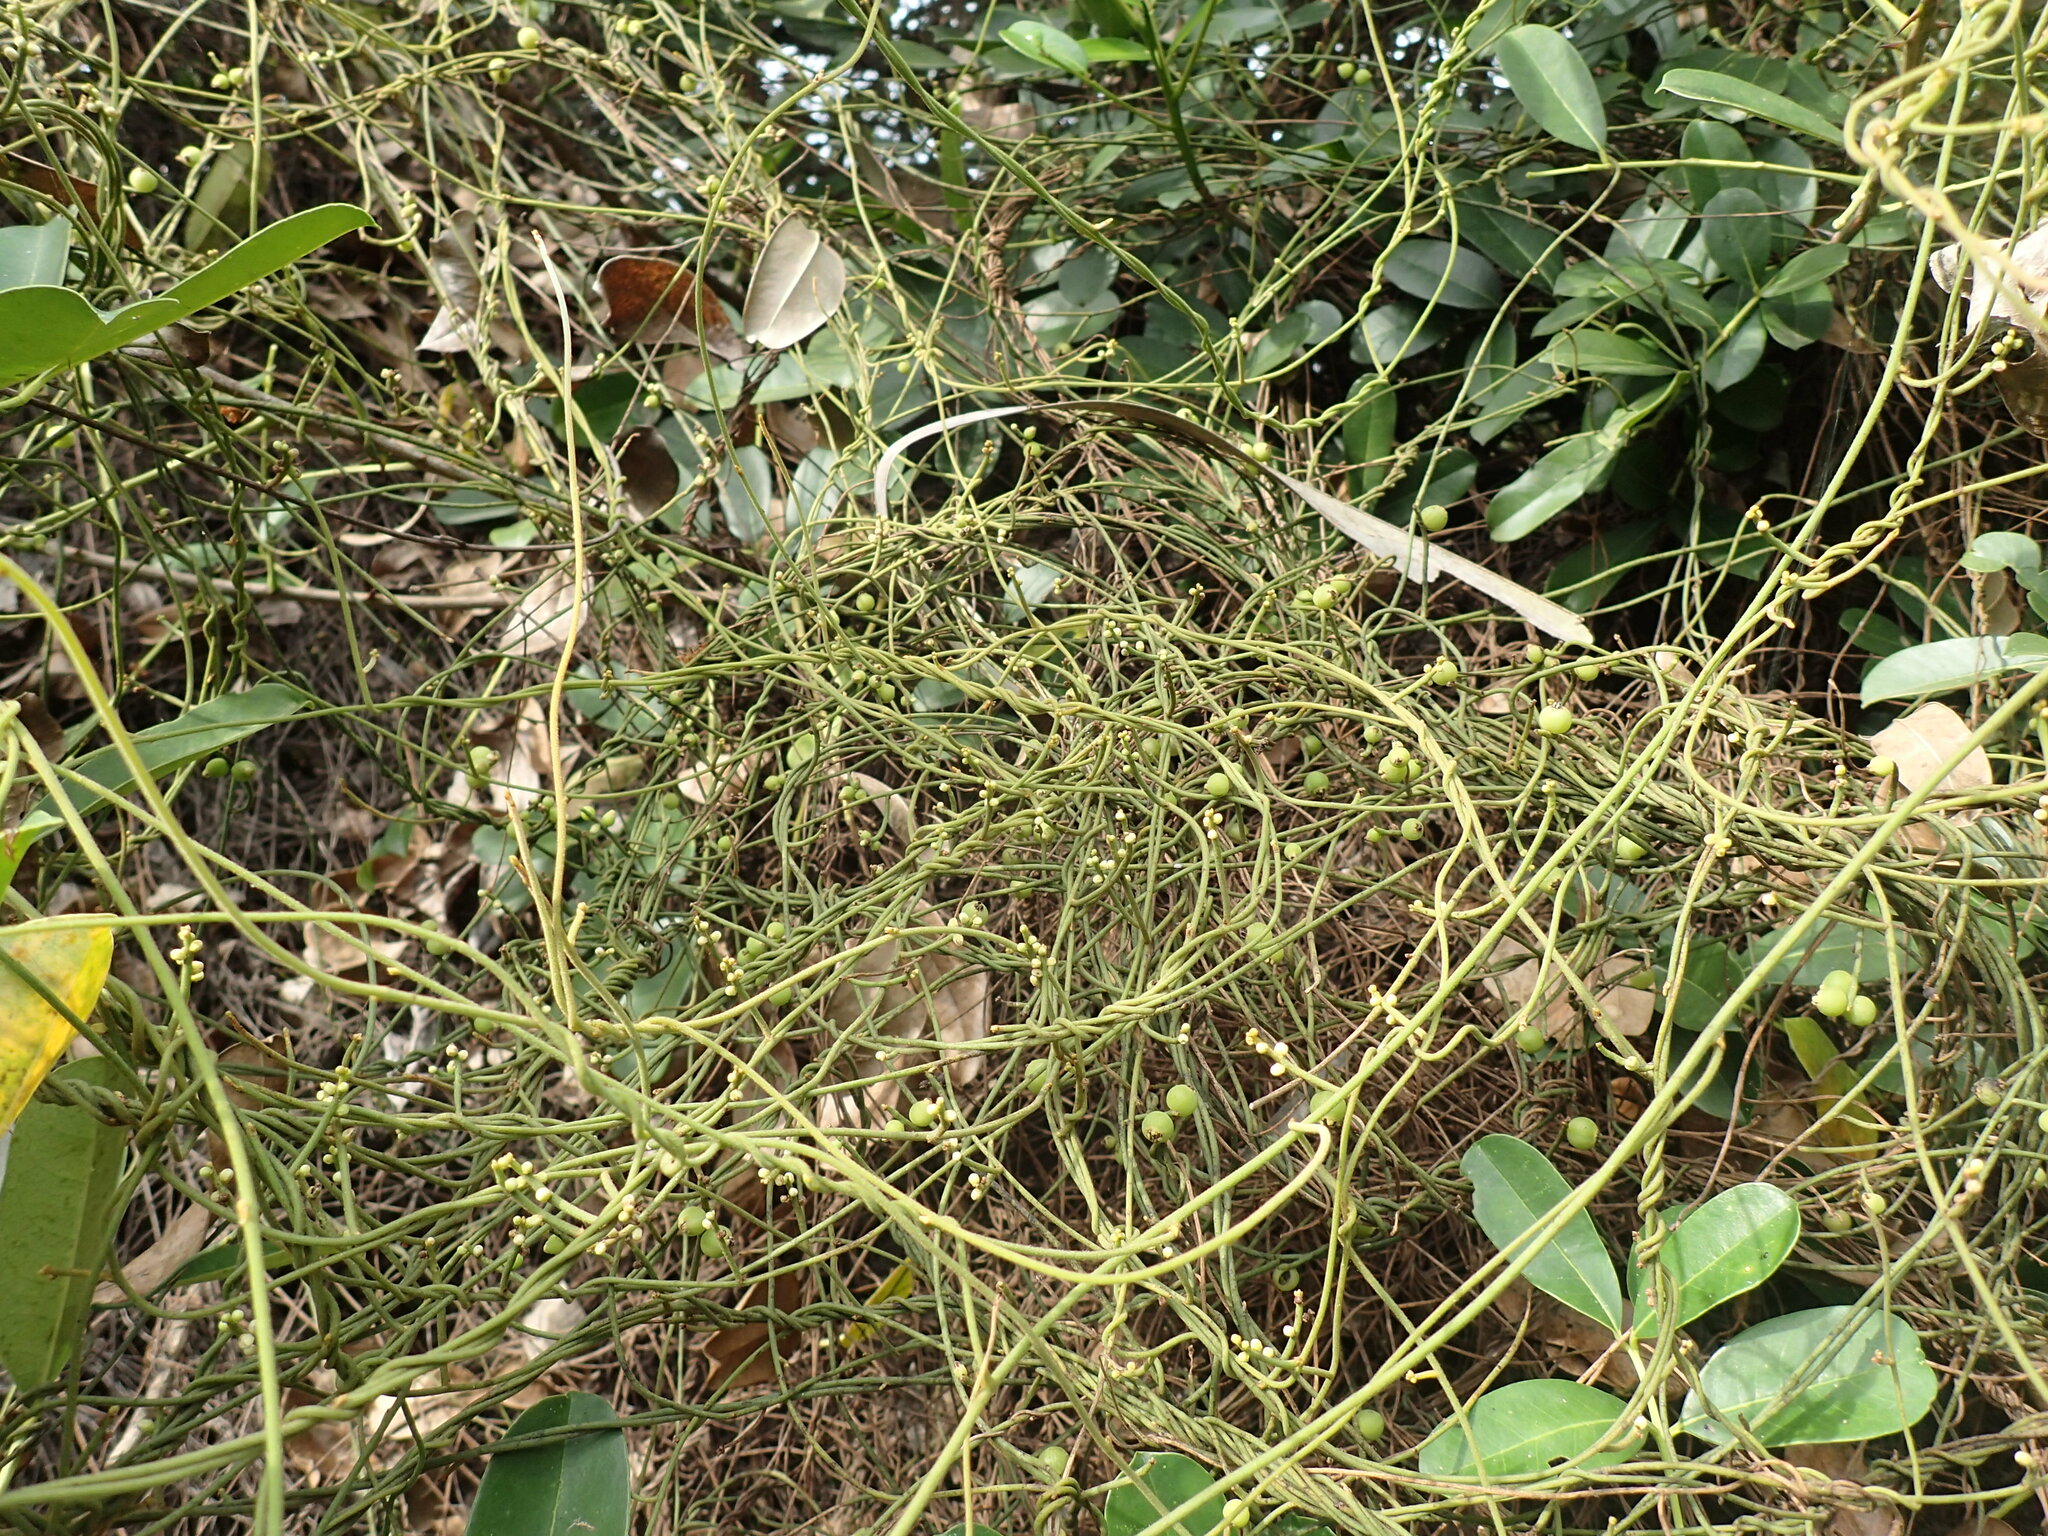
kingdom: Plantae
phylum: Tracheophyta
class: Magnoliopsida
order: Laurales
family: Lauraceae
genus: Cassytha
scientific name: Cassytha filiformis
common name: Dodder-laurel
